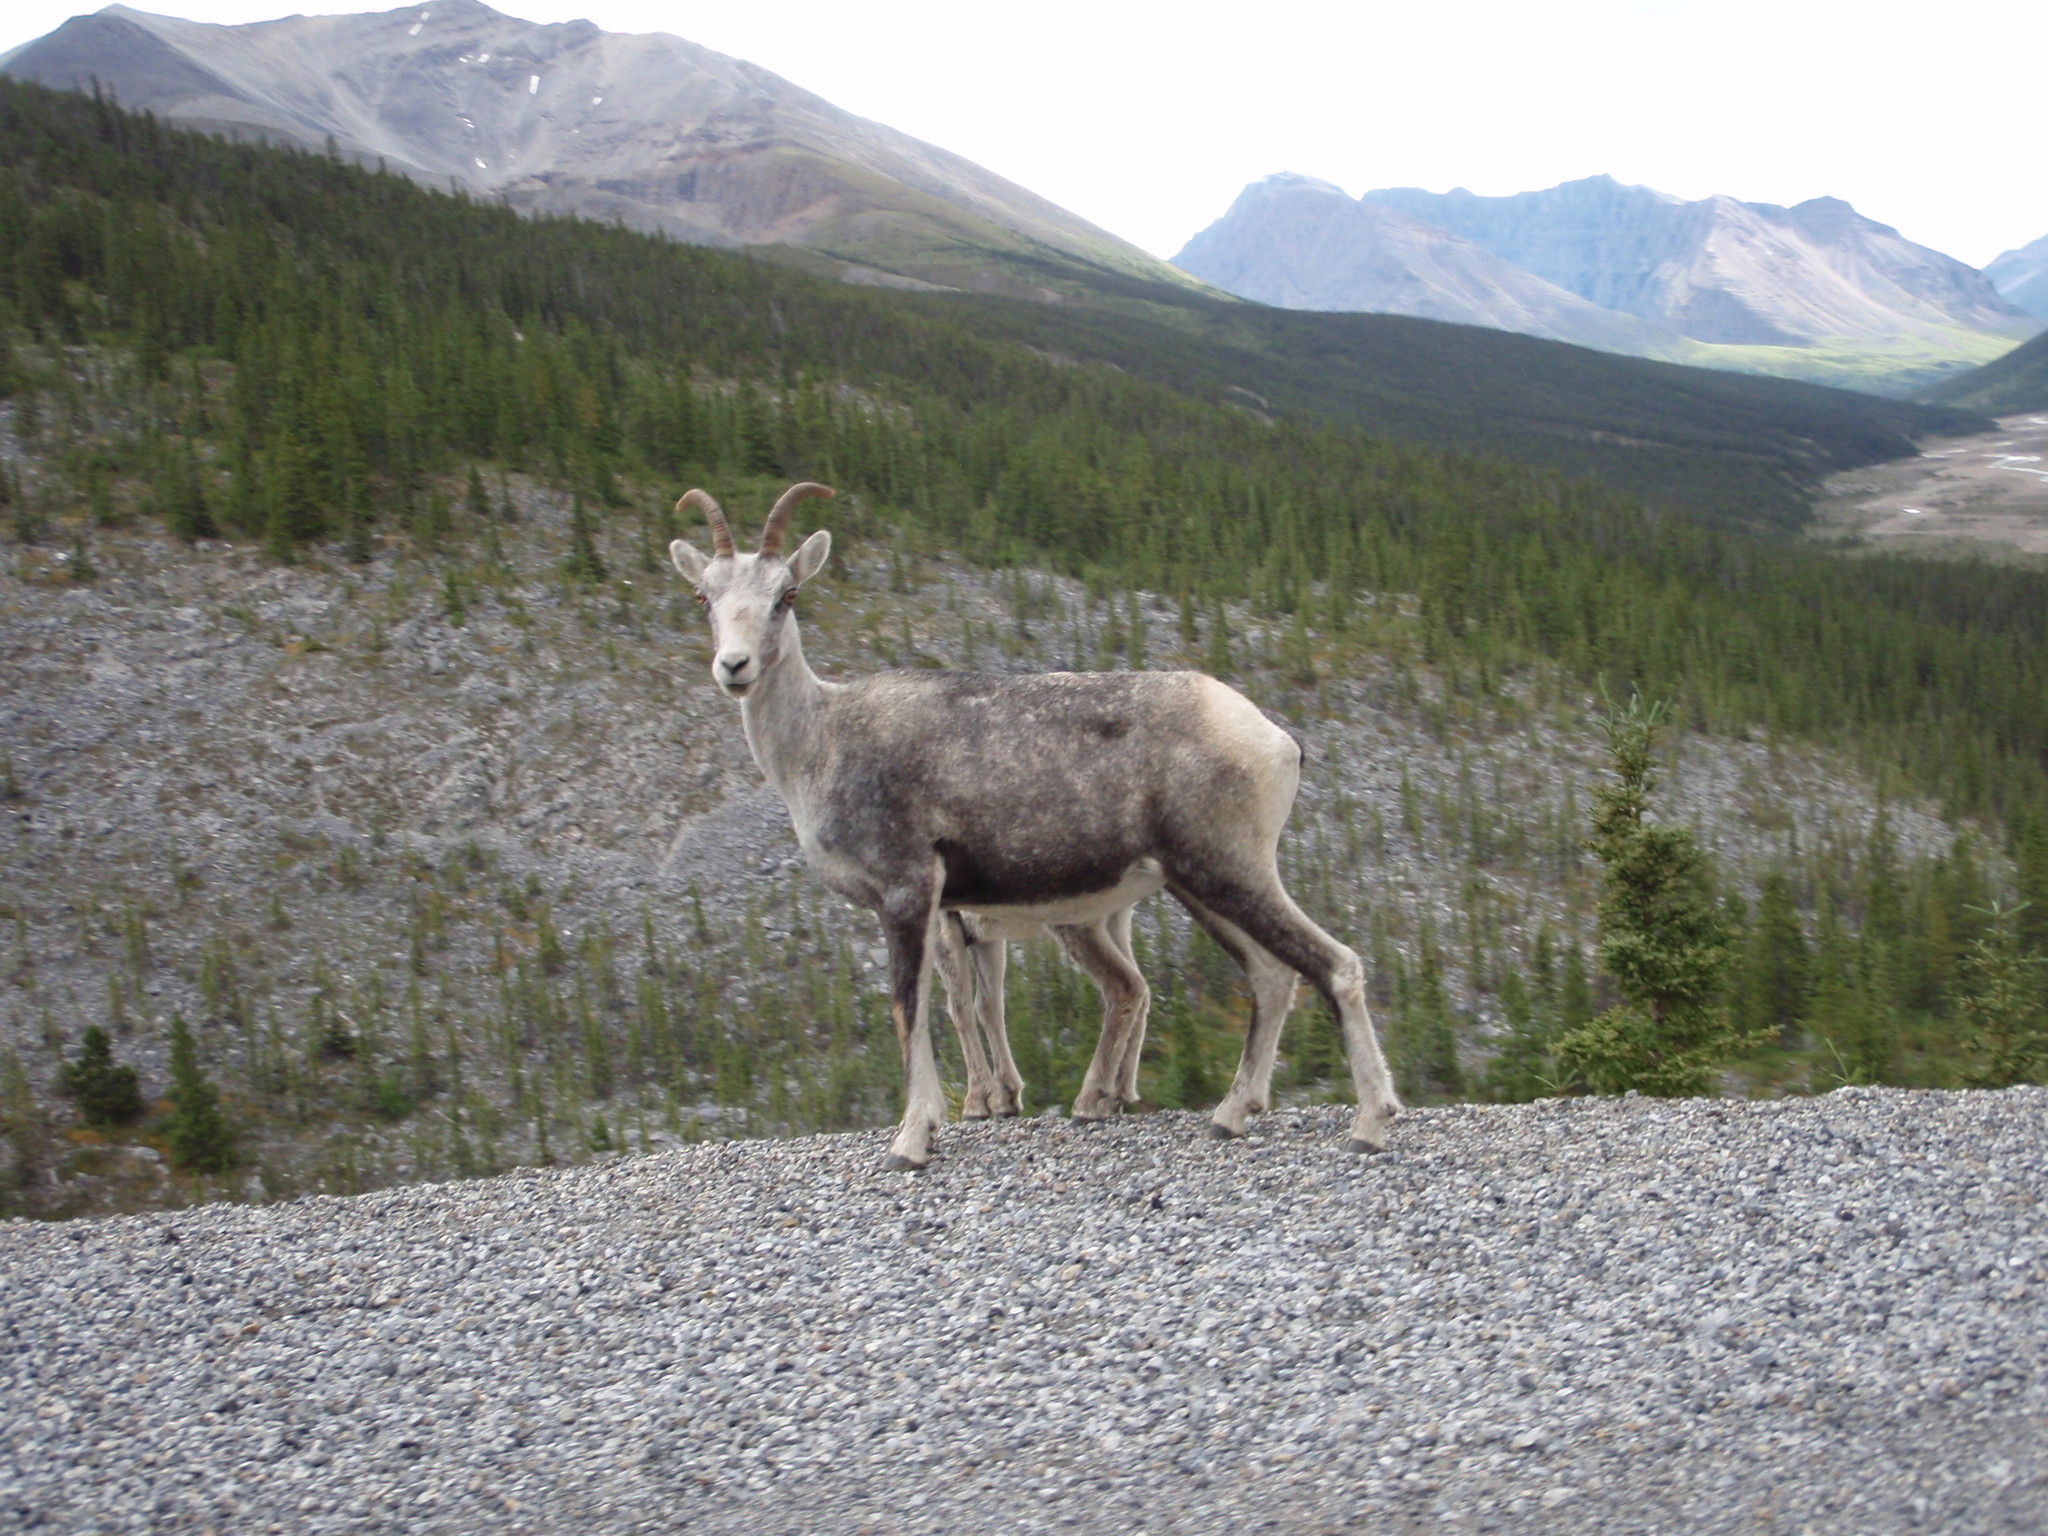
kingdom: Animalia
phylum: Chordata
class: Mammalia
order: Artiodactyla
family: Bovidae
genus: Ovis
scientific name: Ovis dalli
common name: Dall's sheep
